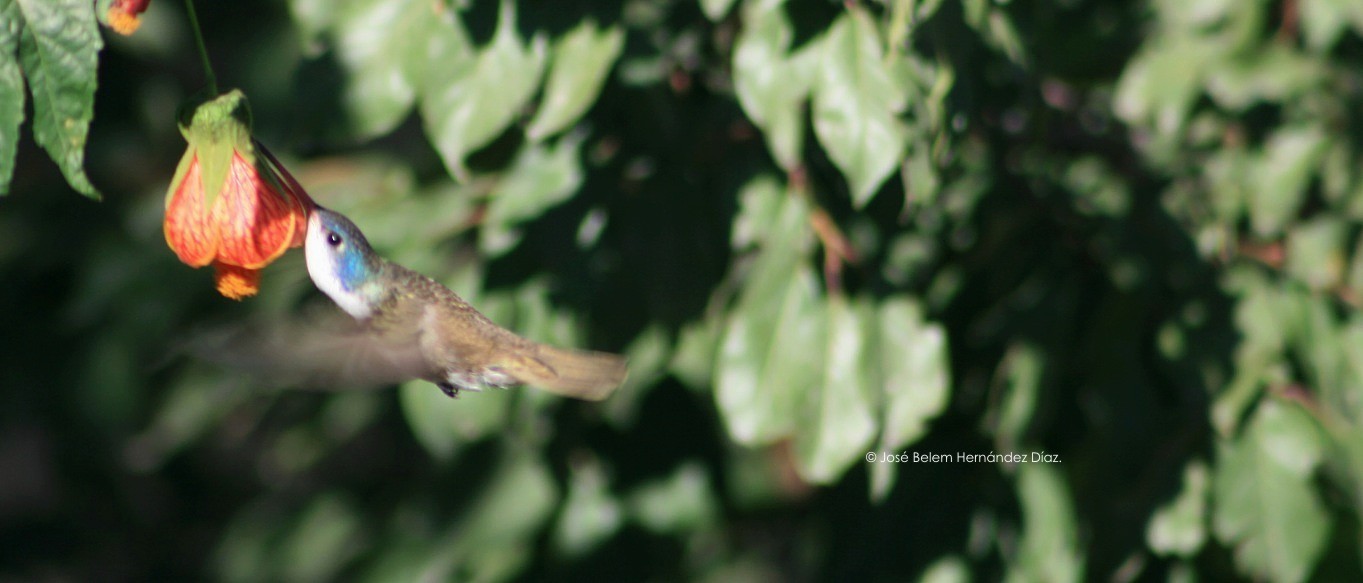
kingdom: Animalia
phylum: Chordata
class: Aves
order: Apodiformes
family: Trochilidae
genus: Leucolia
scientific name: Leucolia violiceps
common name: Violet-crowned hummingbird
